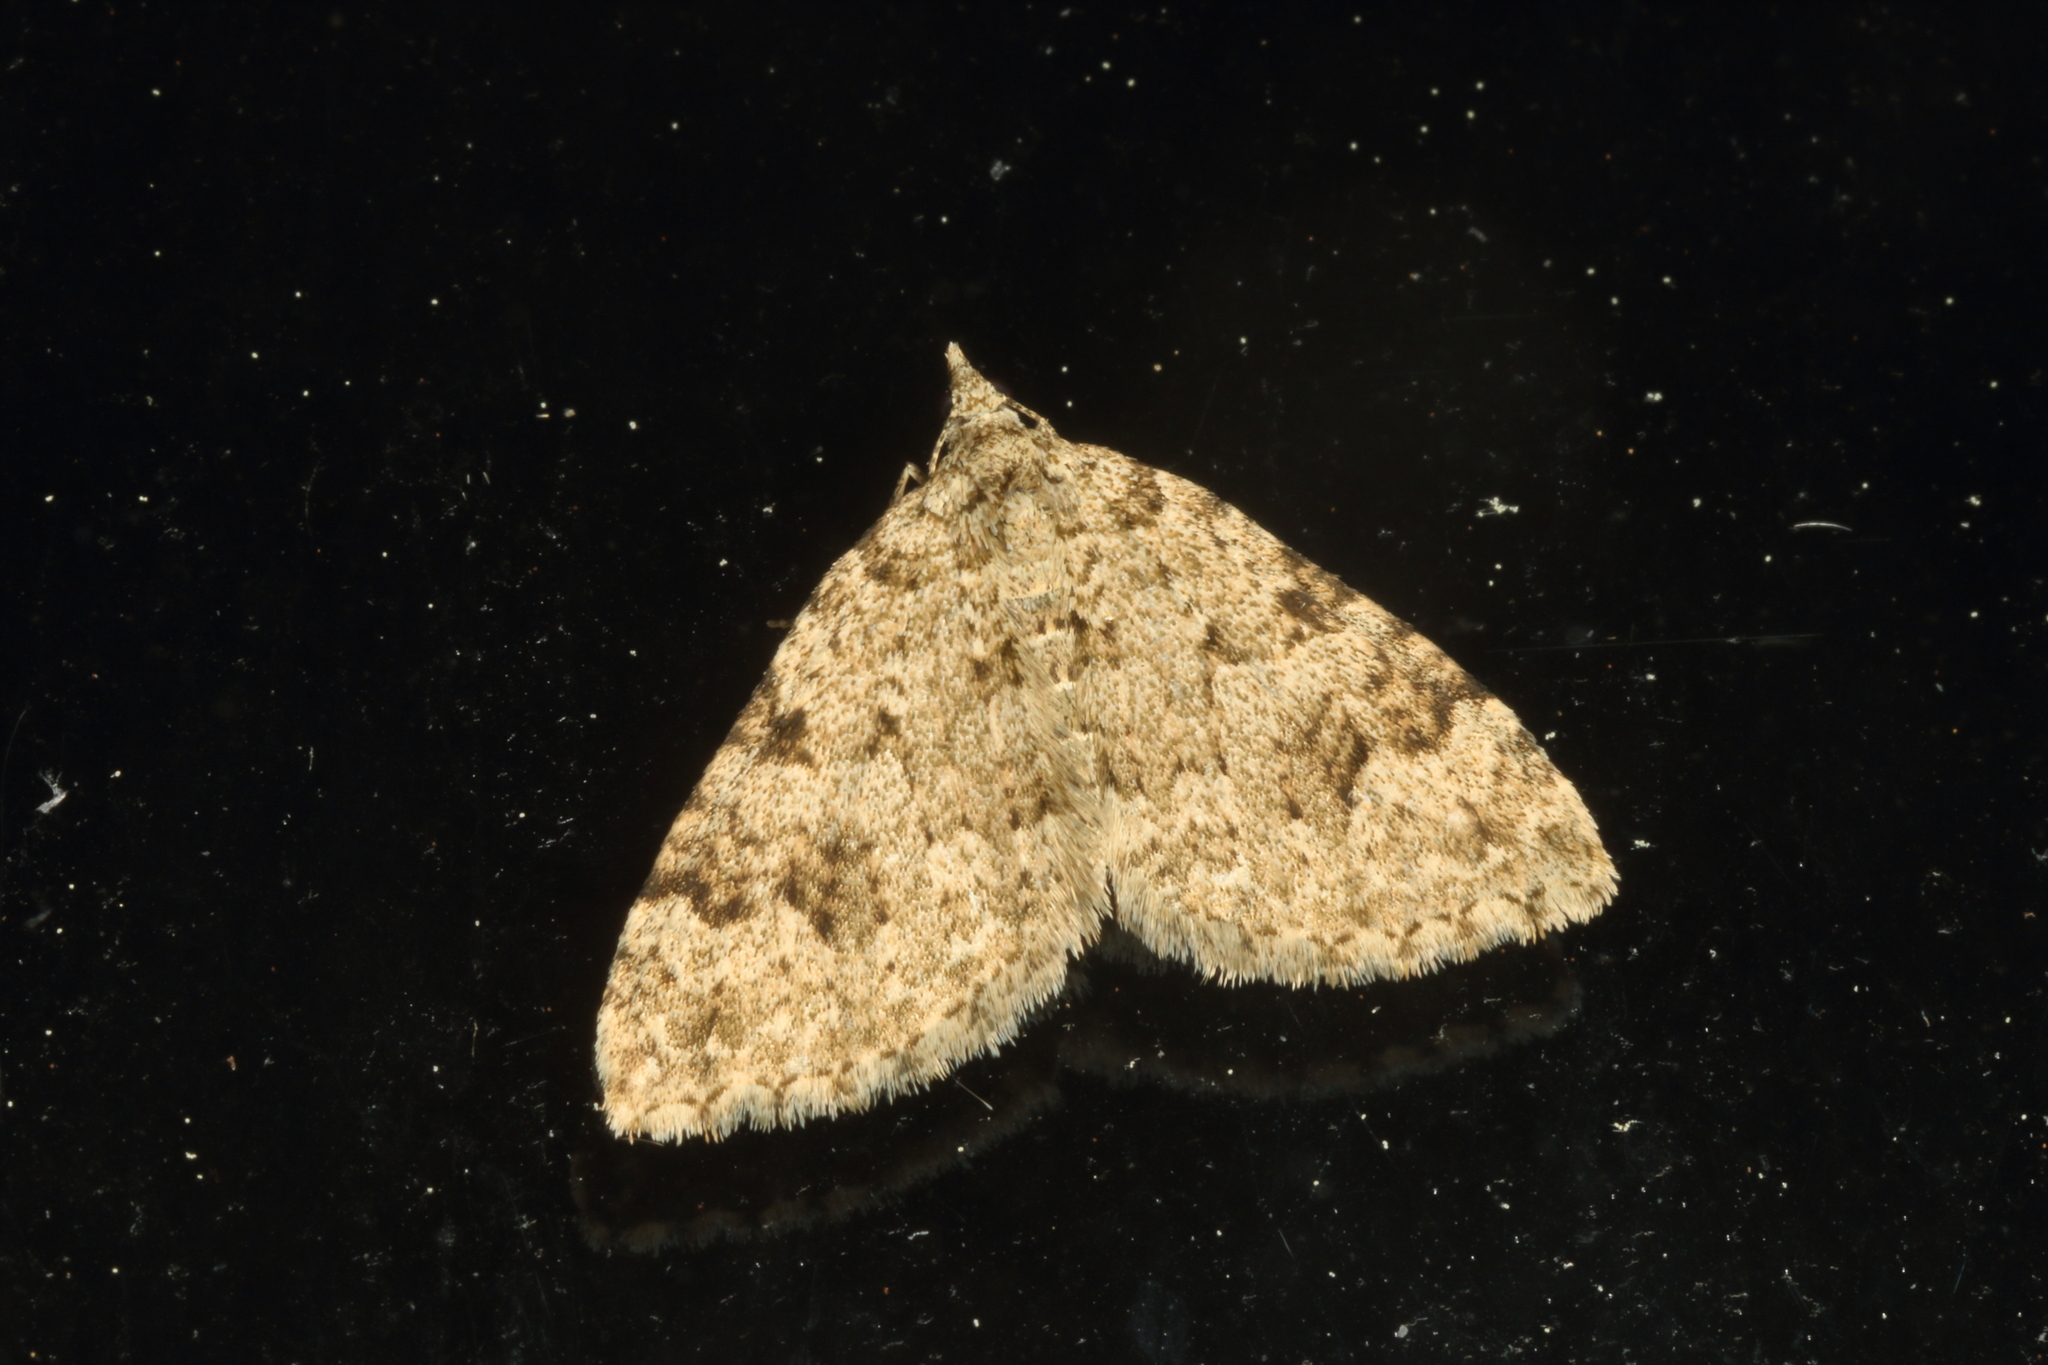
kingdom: Animalia
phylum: Arthropoda
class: Insecta
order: Lepidoptera
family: Geometridae
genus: Helastia
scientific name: Helastia cinerearia
